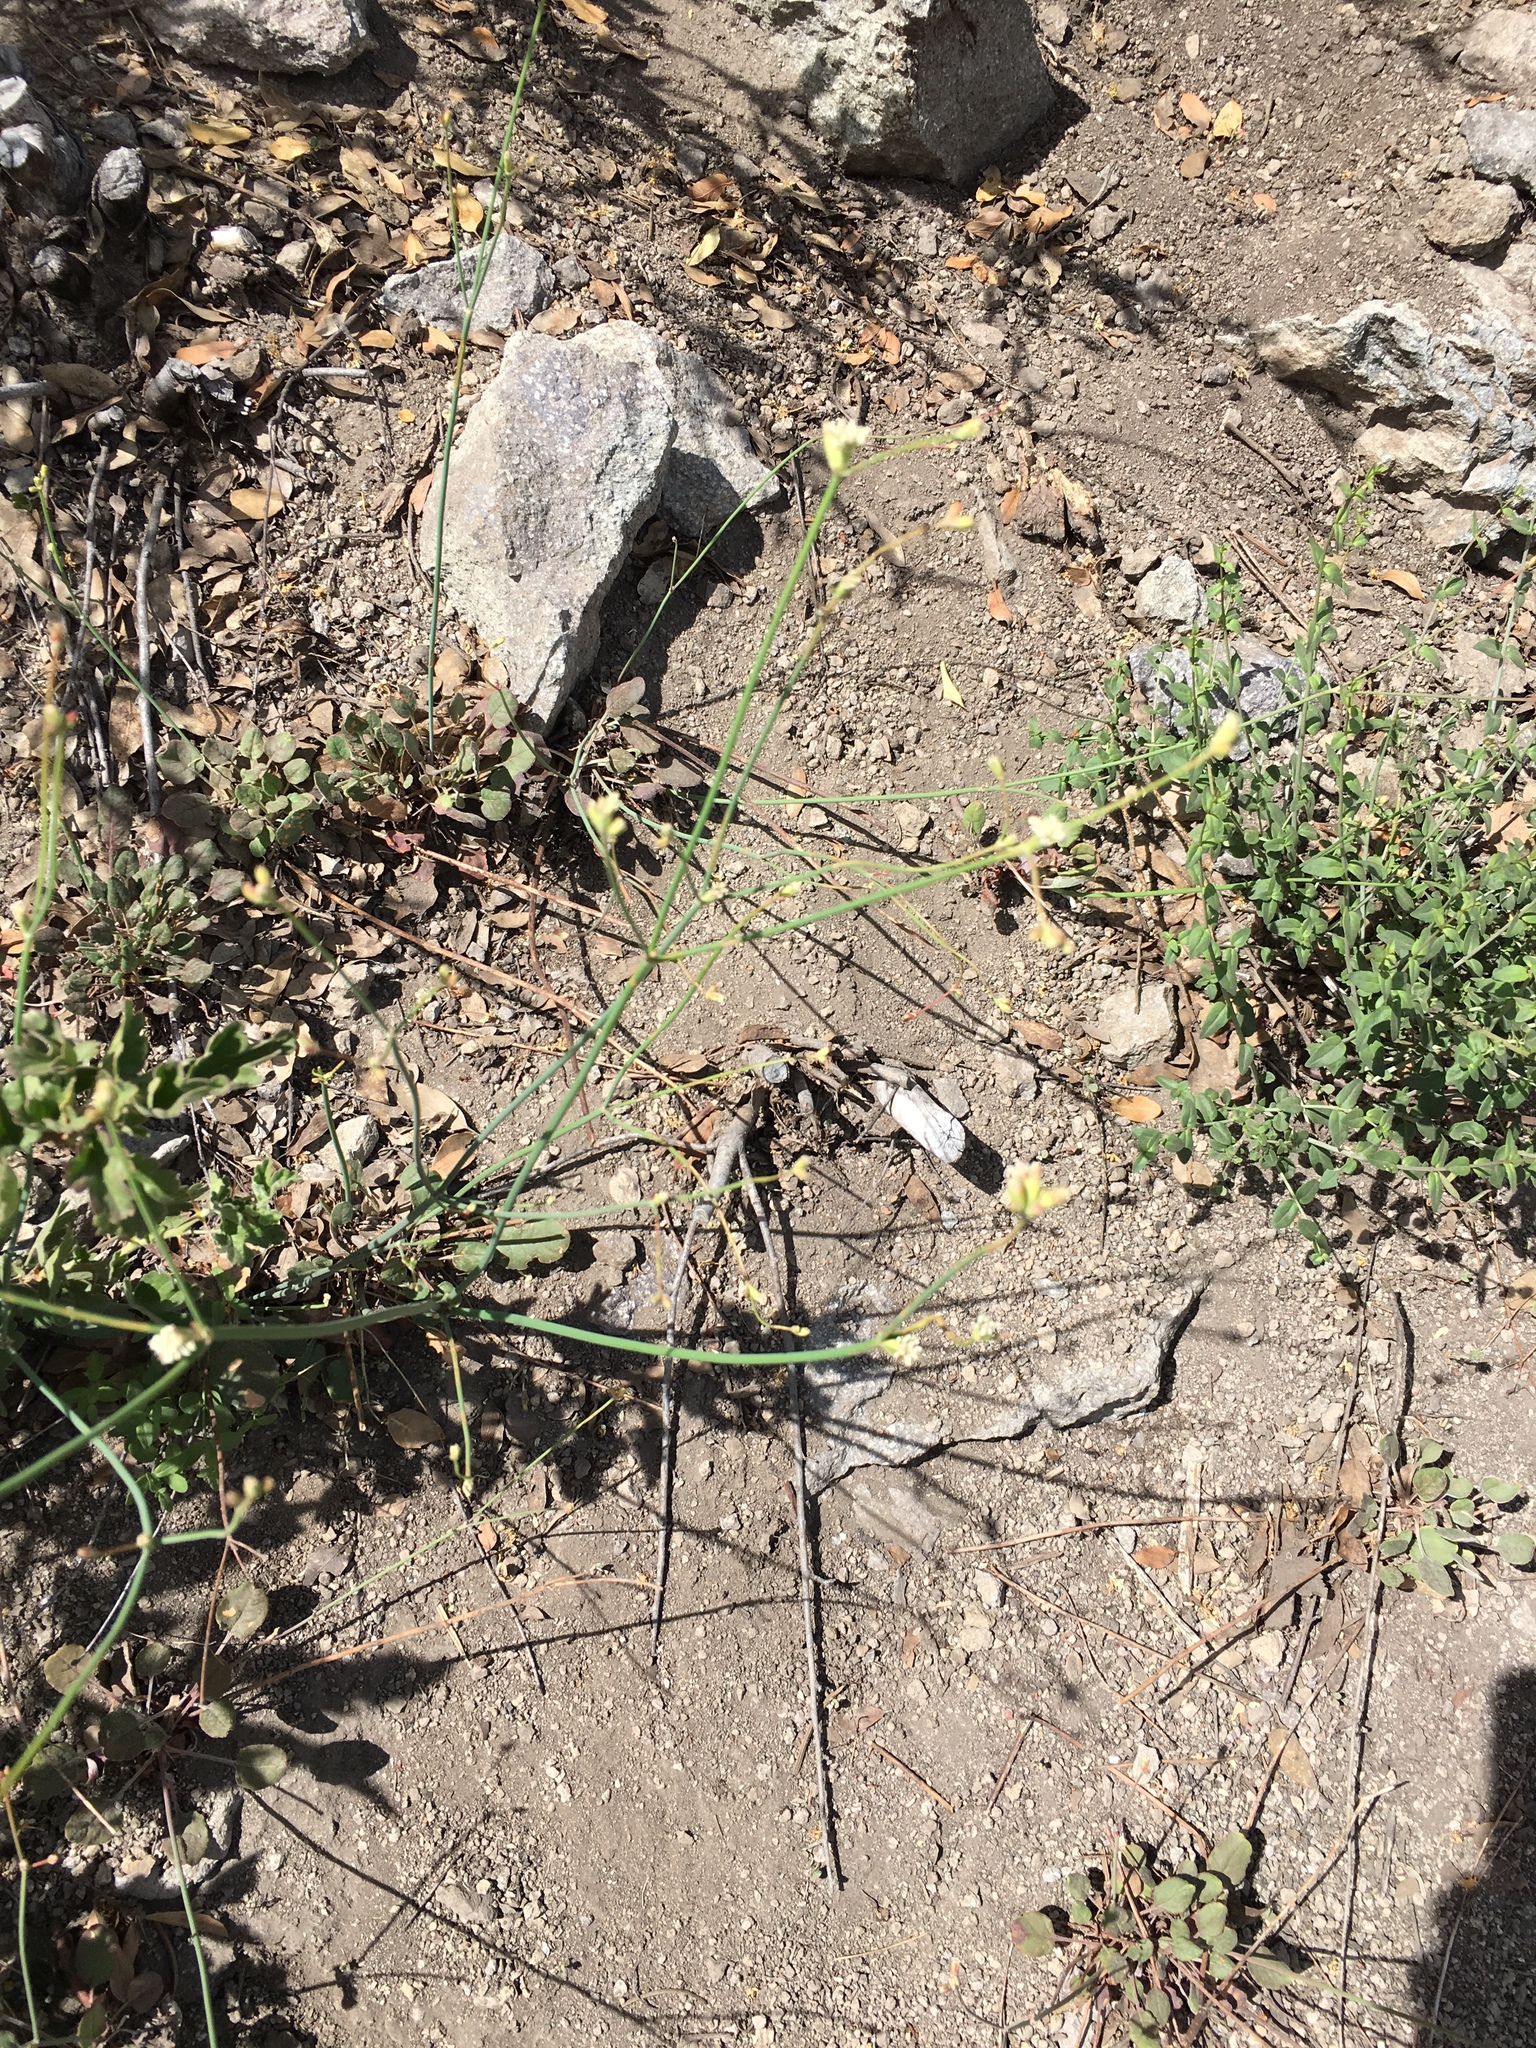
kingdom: Plantae
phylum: Tracheophyta
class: Magnoliopsida
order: Caryophyllales
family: Polygonaceae
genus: Eriogonum
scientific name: Eriogonum nudum
